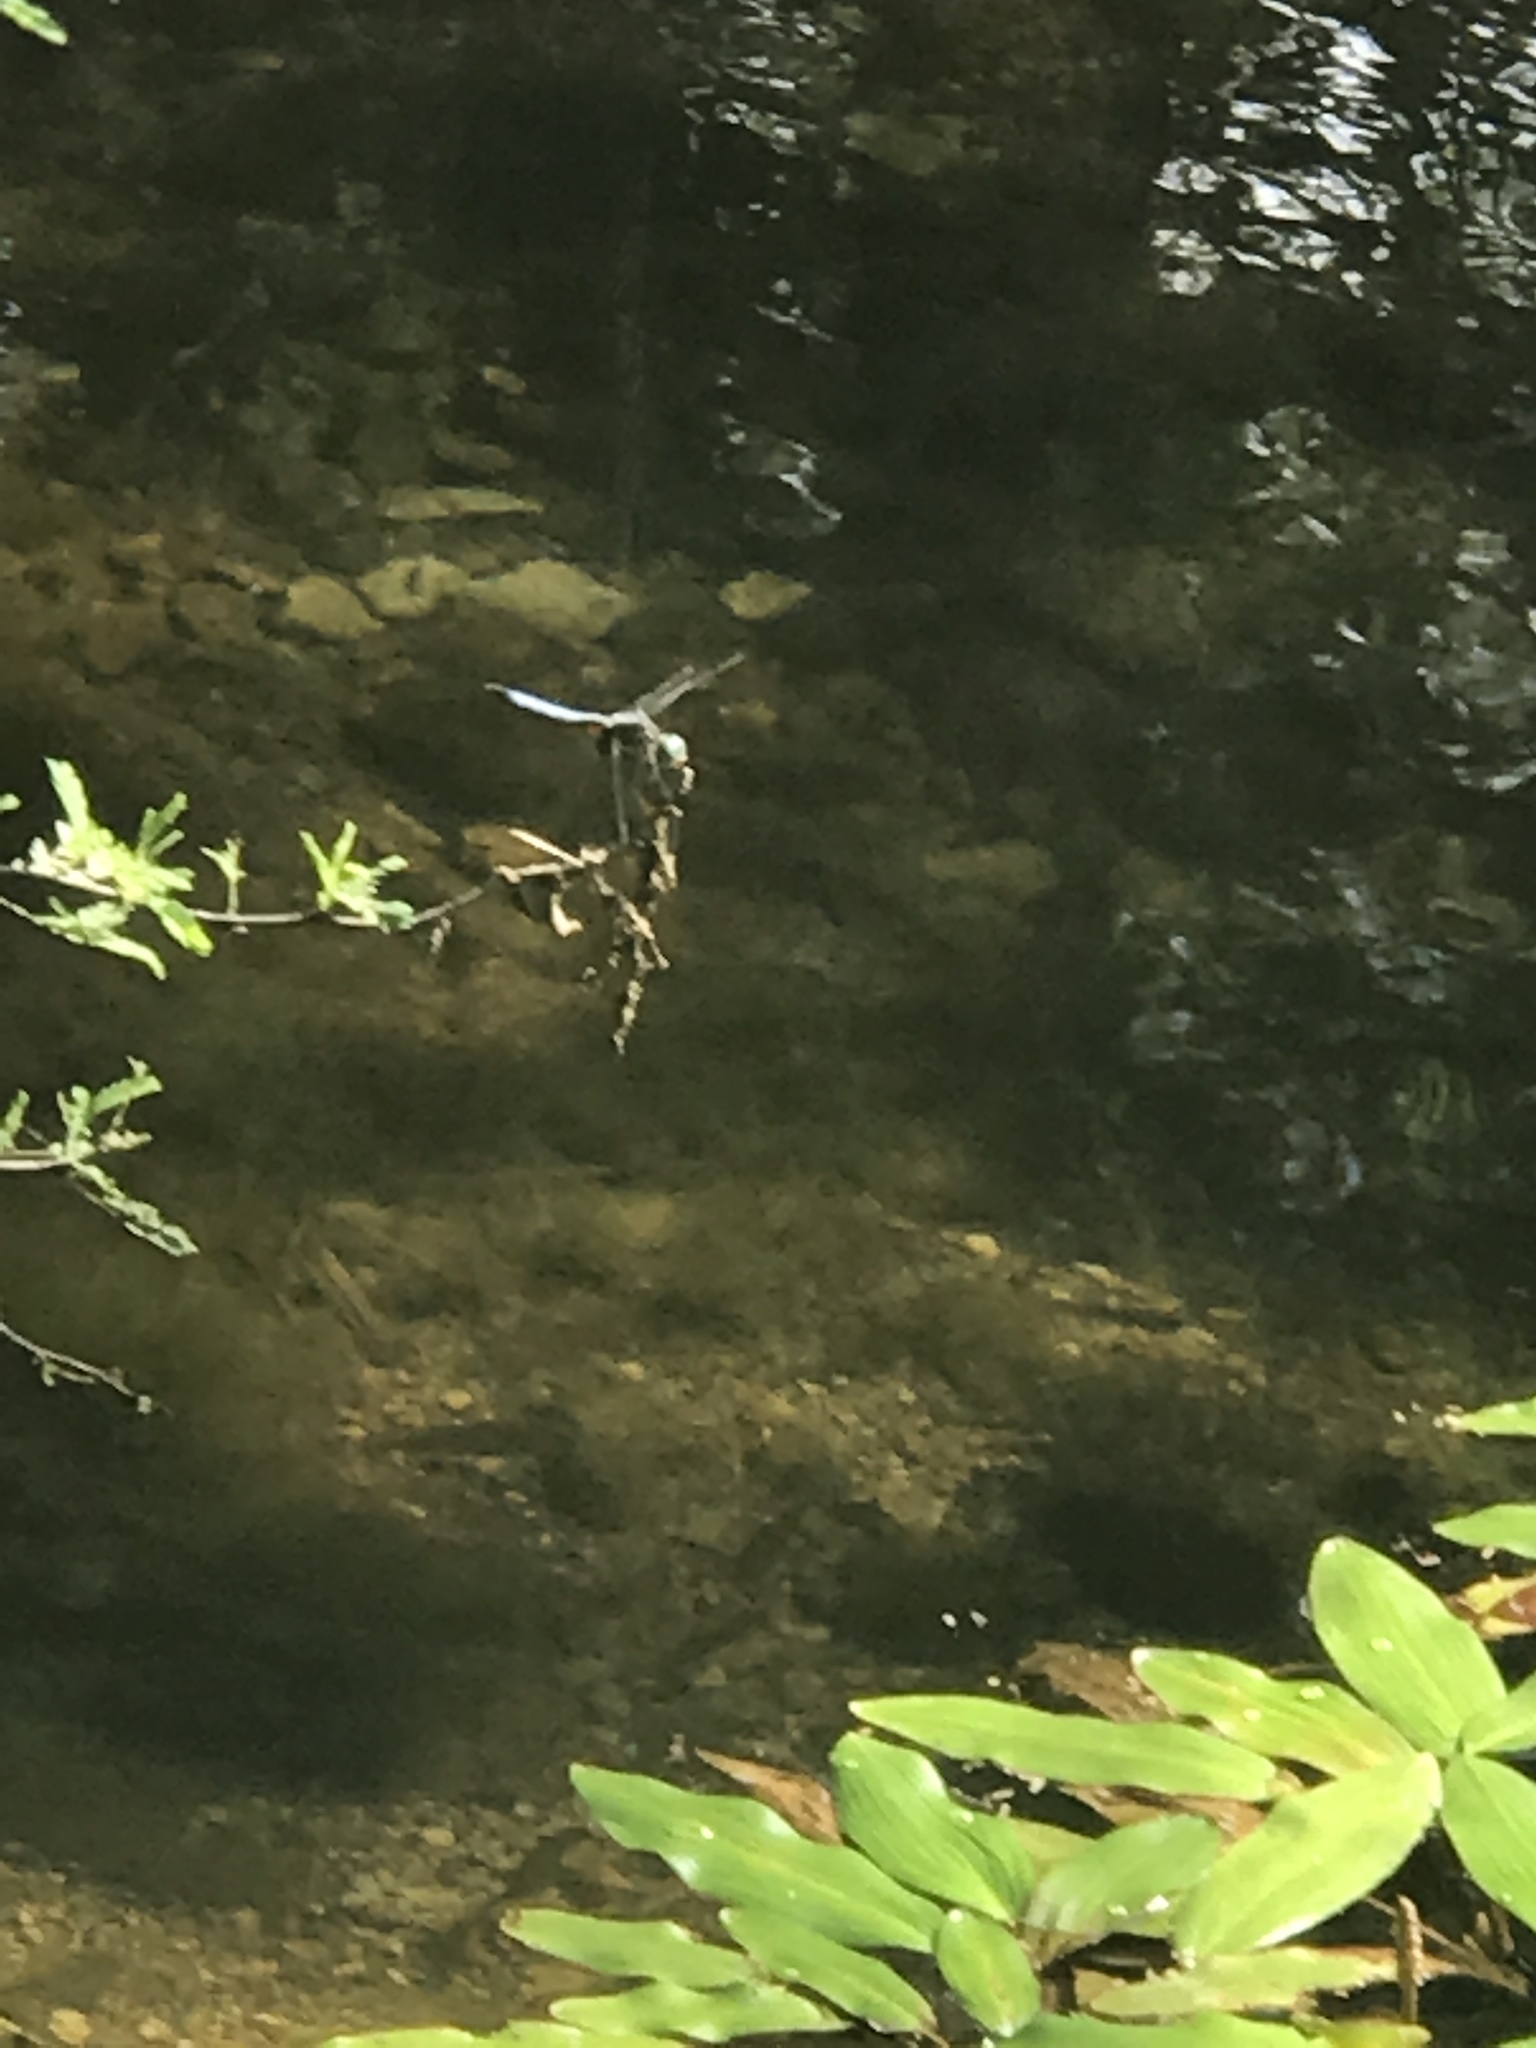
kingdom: Animalia
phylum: Arthropoda
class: Insecta
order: Odonata
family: Libellulidae
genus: Pachydiplax
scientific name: Pachydiplax longipennis
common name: Blue dasher
